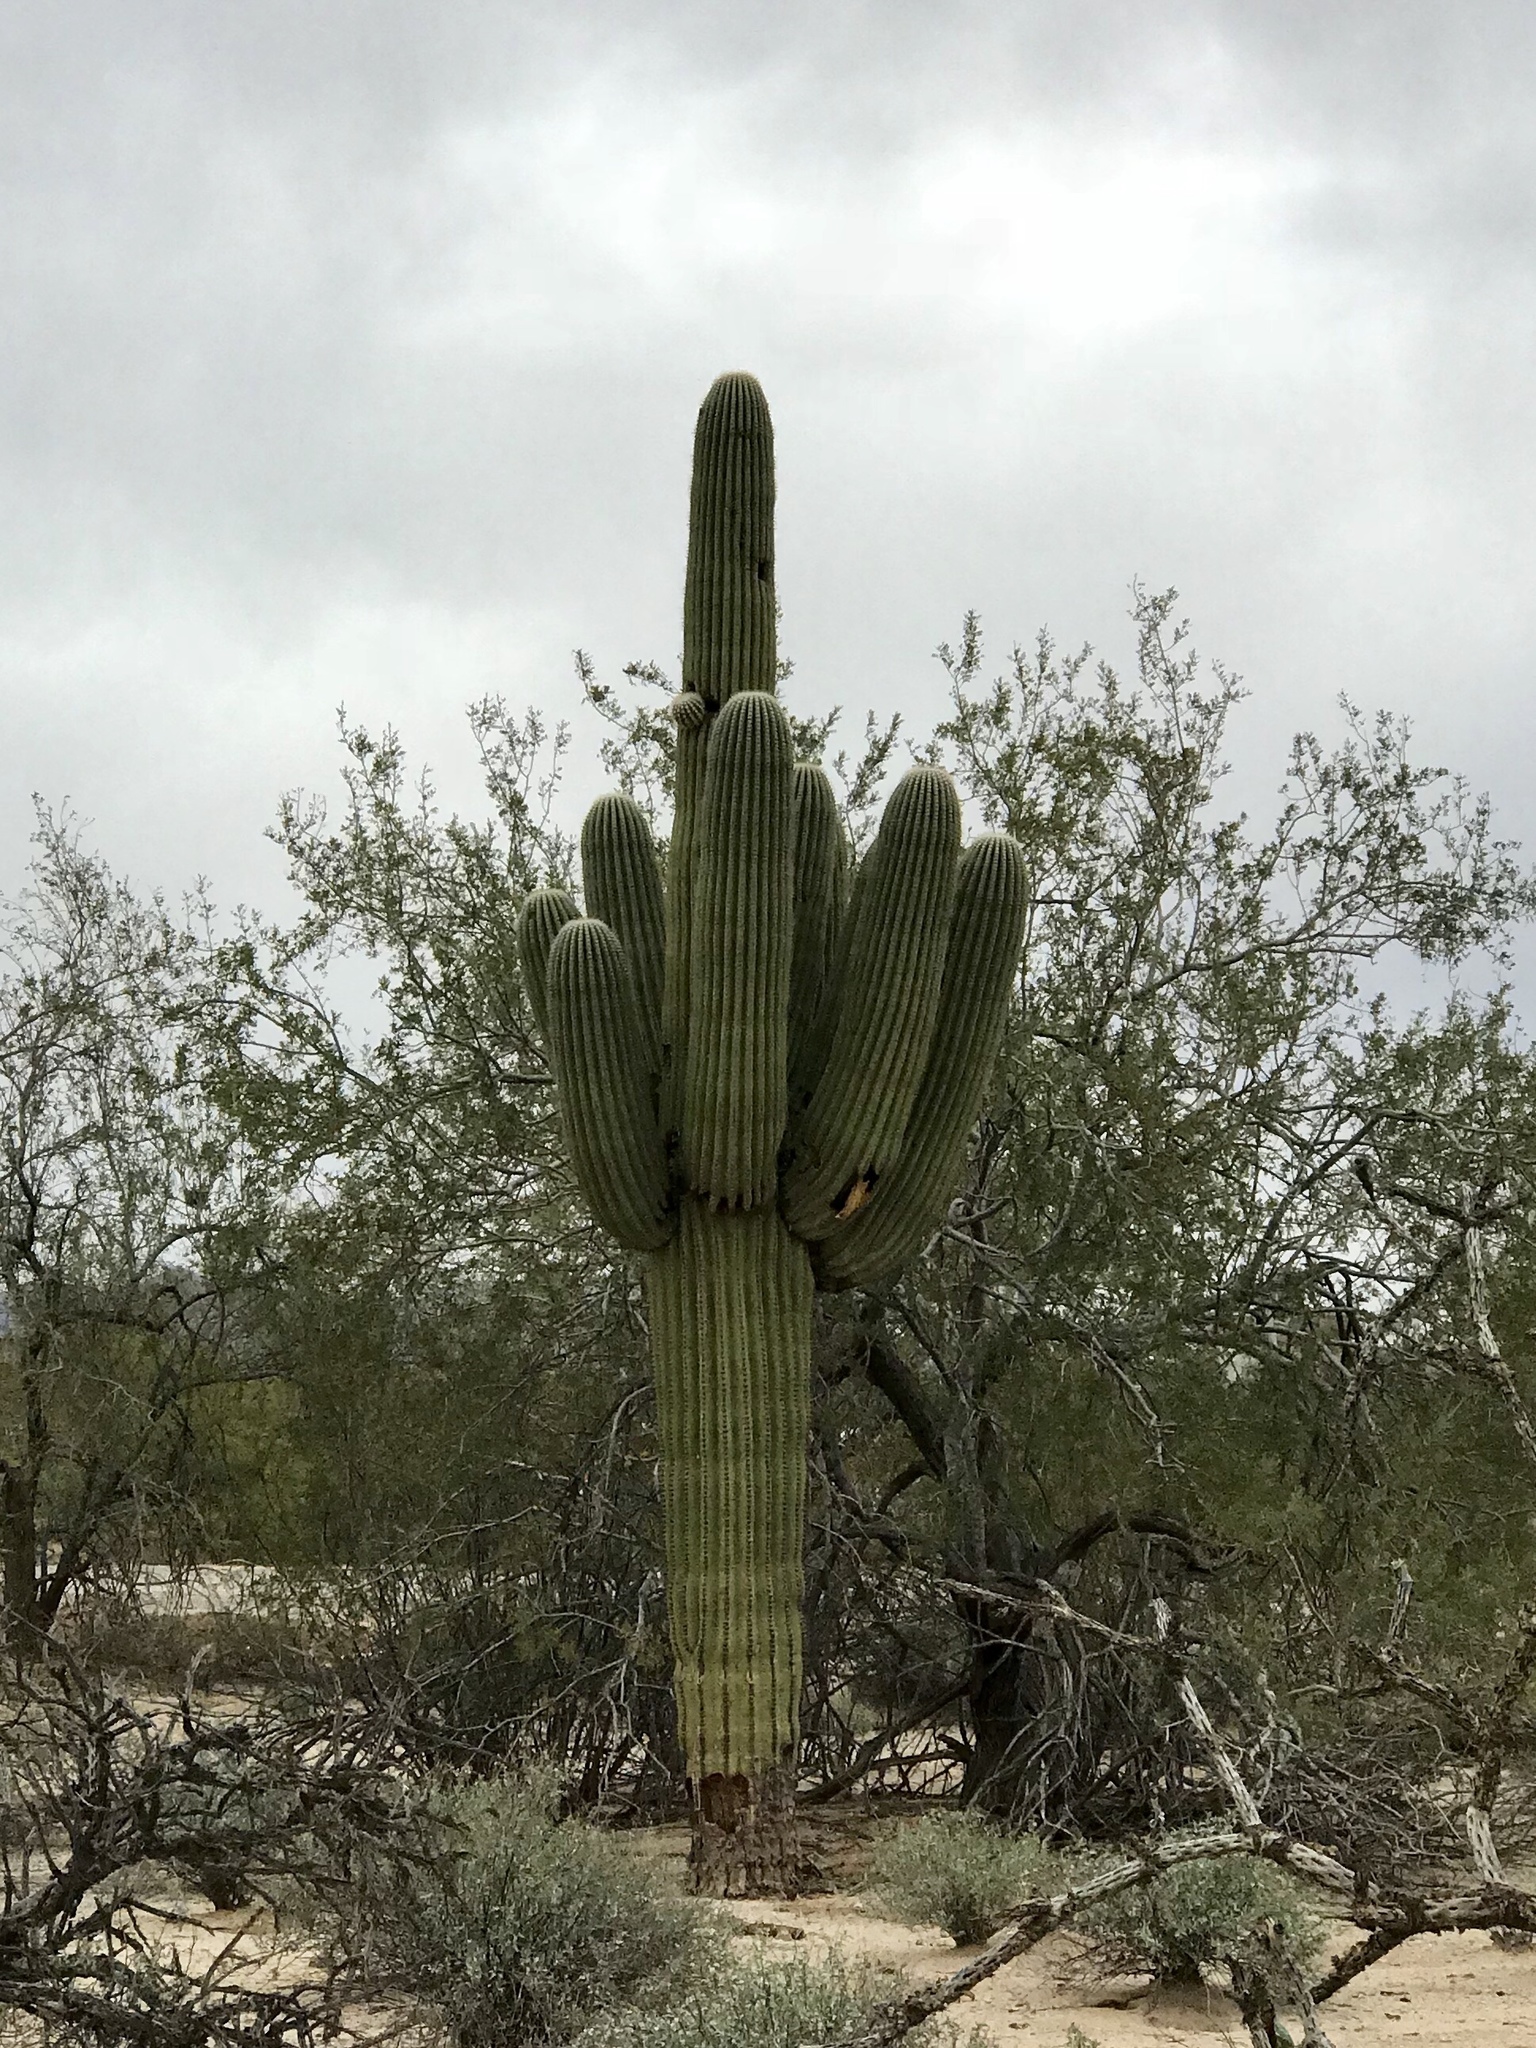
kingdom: Plantae
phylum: Tracheophyta
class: Magnoliopsida
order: Caryophyllales
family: Cactaceae
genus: Carnegiea
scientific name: Carnegiea gigantea
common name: Saguaro
